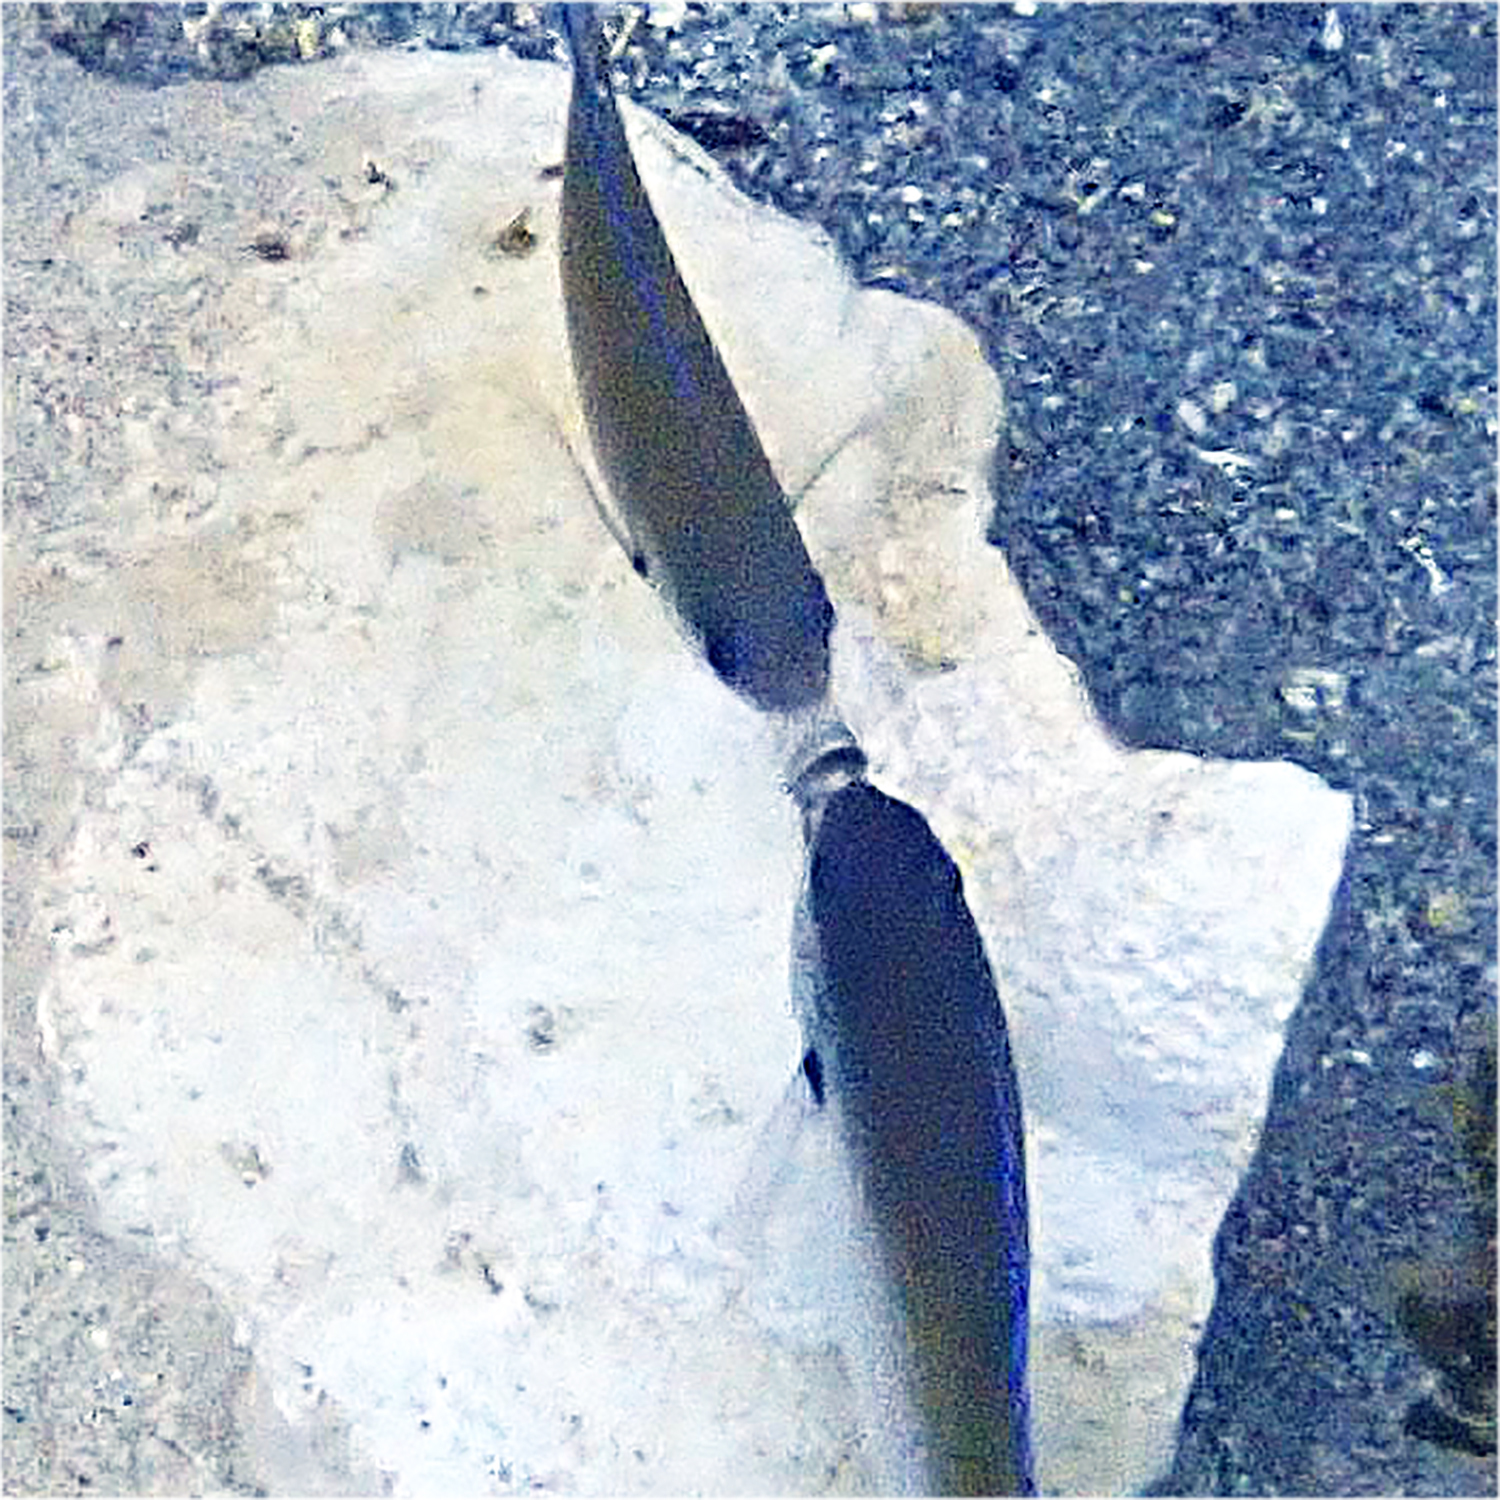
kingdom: Animalia
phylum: Chordata
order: Perciformes
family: Pomacentridae
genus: Chromis
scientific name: Chromis norfolkensis
